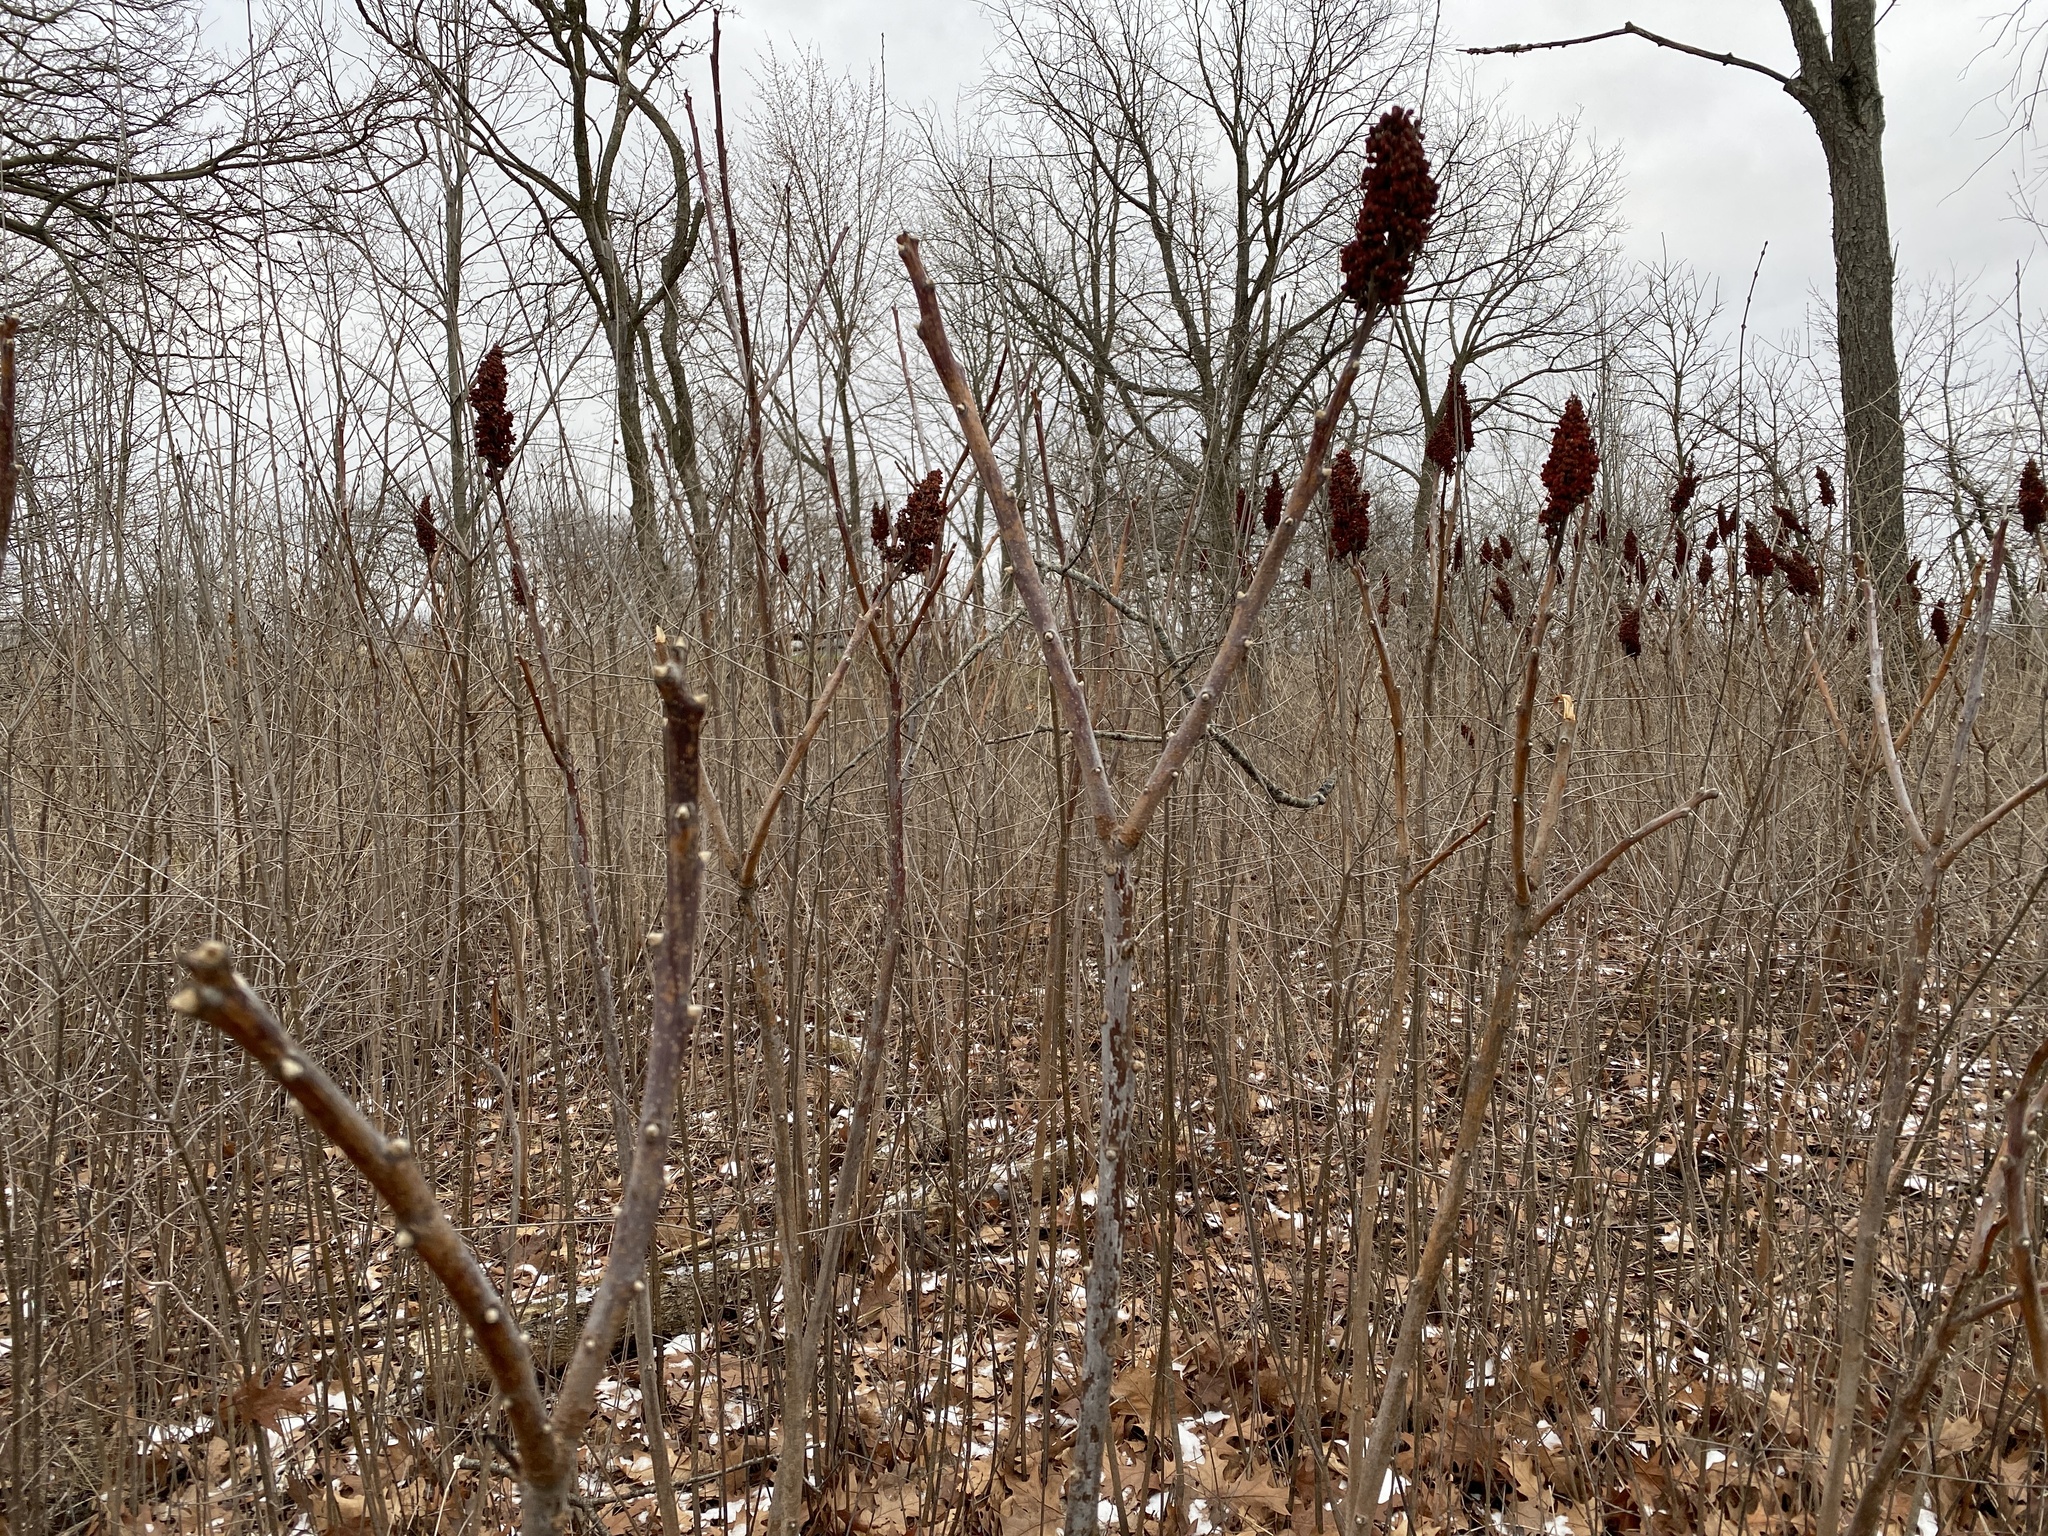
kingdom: Plantae
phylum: Tracheophyta
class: Magnoliopsida
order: Sapindales
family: Anacardiaceae
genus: Rhus
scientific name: Rhus glabra
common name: Scarlet sumac
